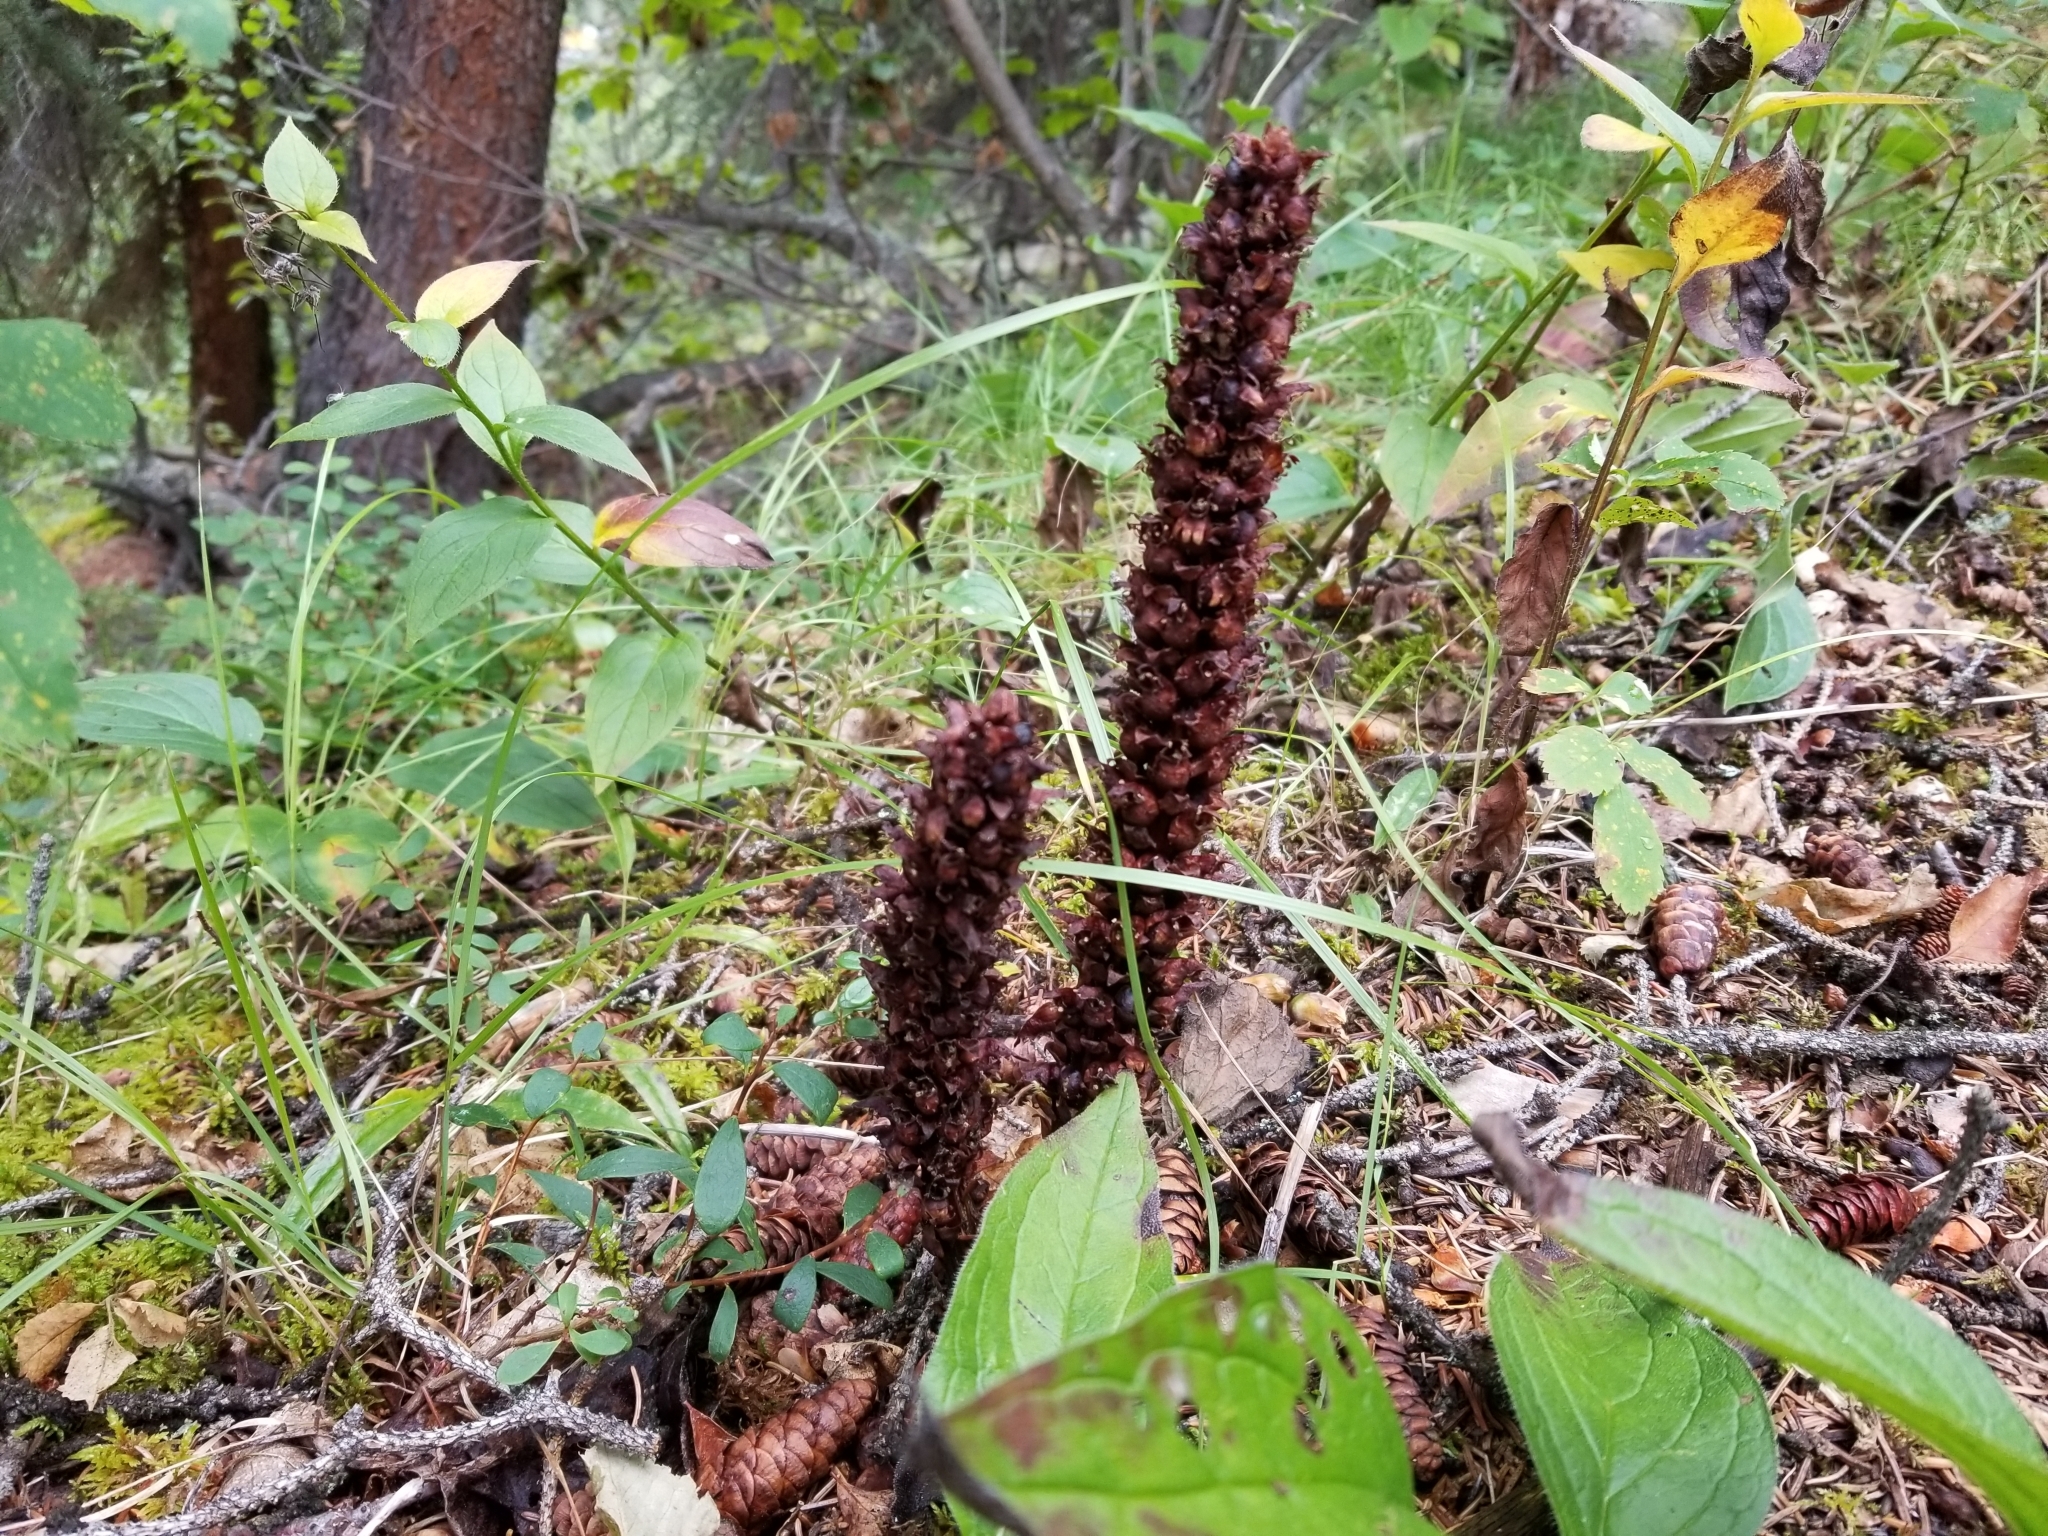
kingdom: Plantae
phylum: Tracheophyta
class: Magnoliopsida
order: Lamiales
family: Orobanchaceae
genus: Boschniakia
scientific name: Boschniakia rossica
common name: Poque
